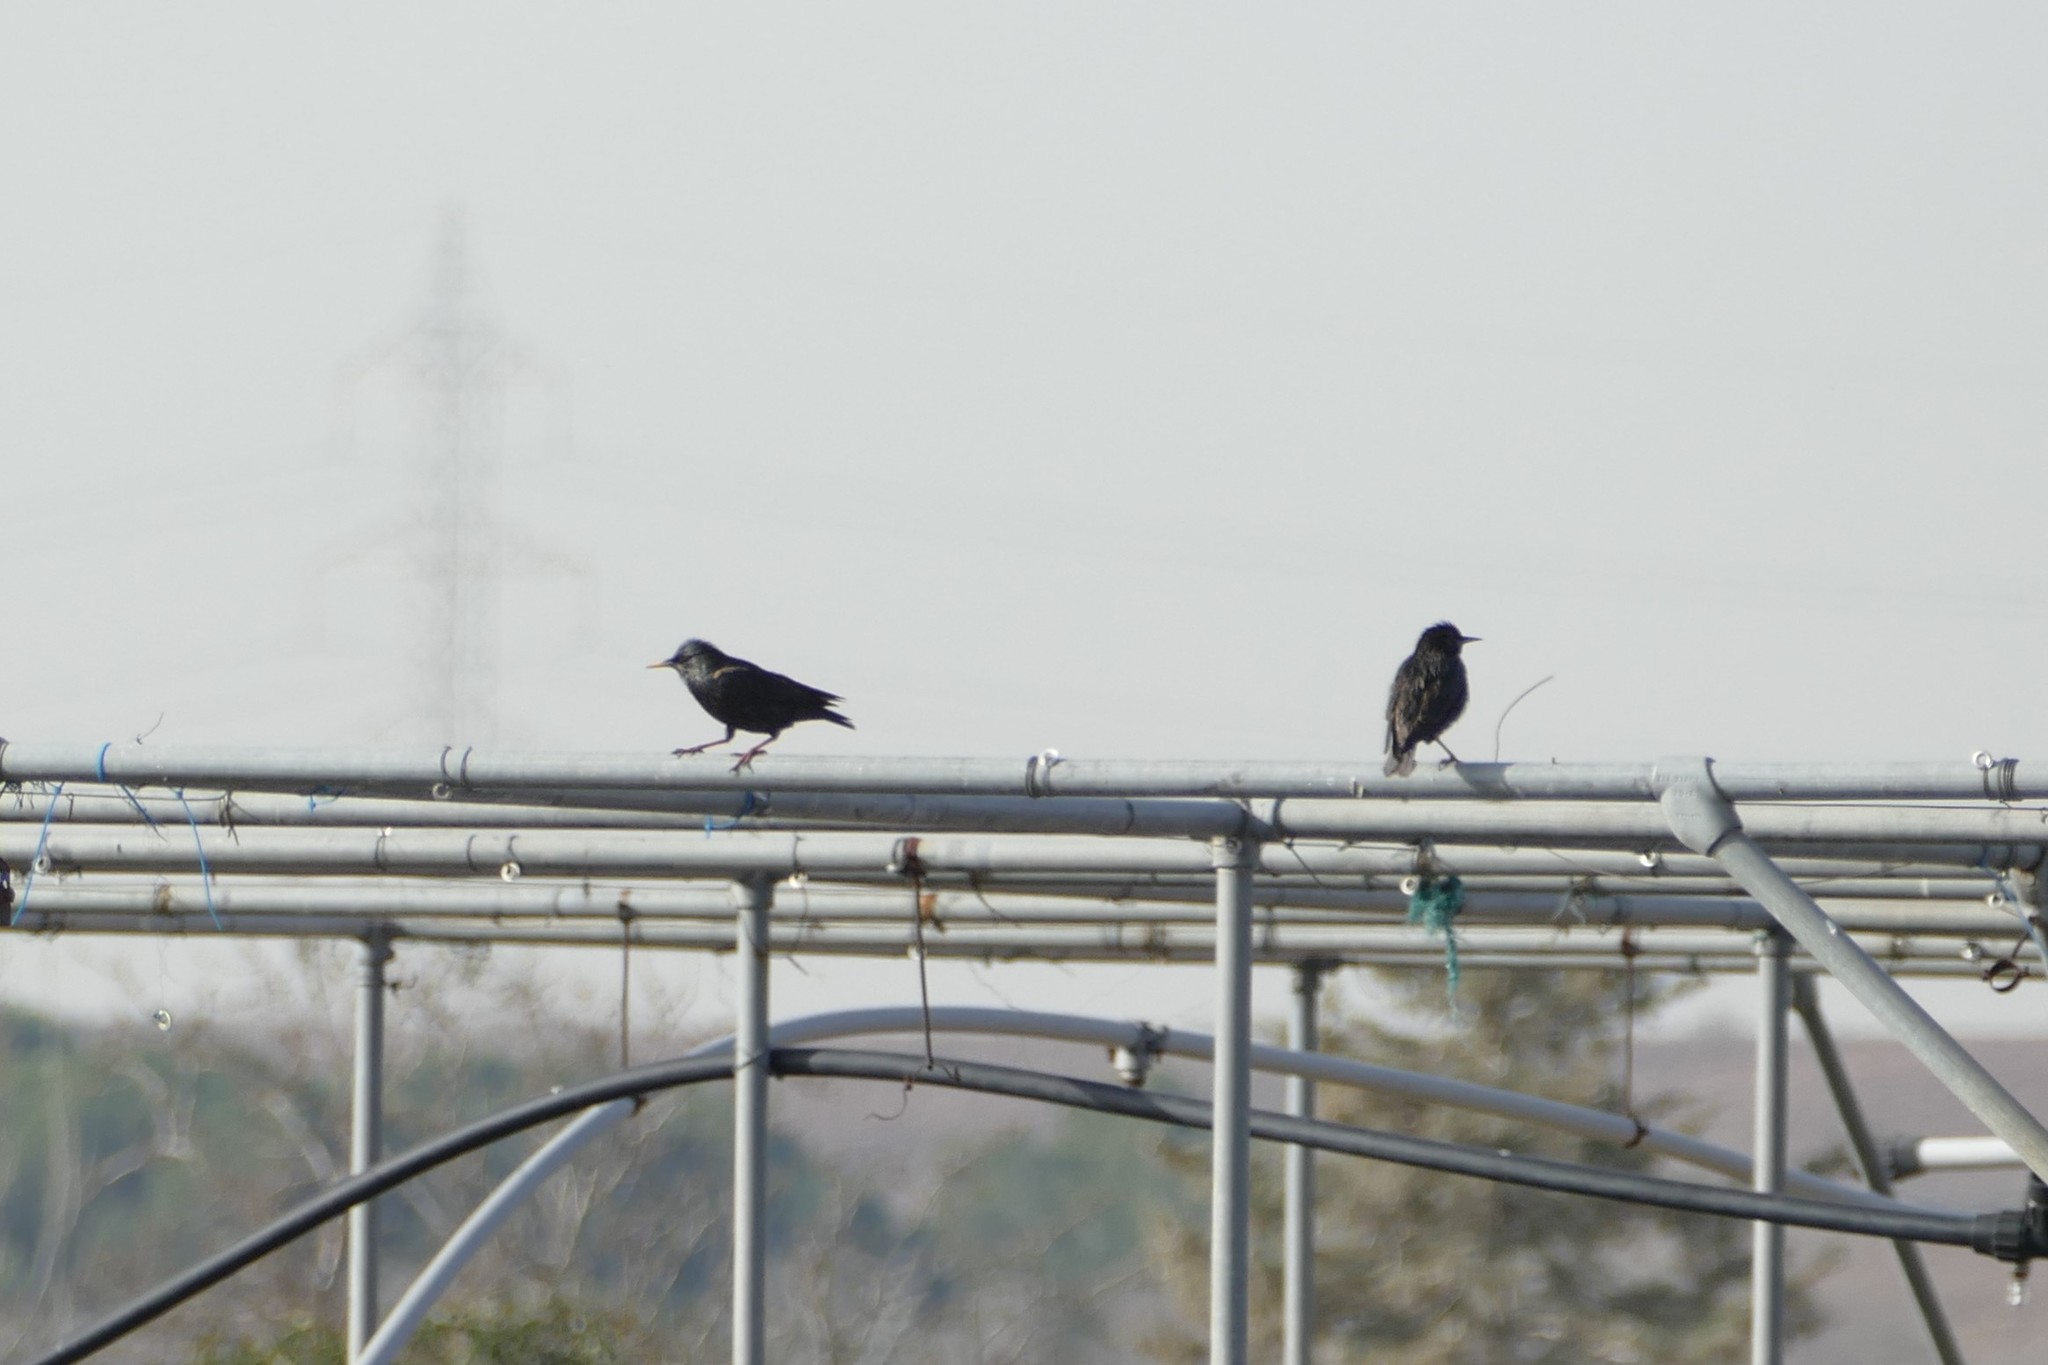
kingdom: Animalia
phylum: Chordata
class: Aves
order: Passeriformes
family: Sturnidae
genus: Sturnus
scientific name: Sturnus unicolor
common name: Spotless starling
